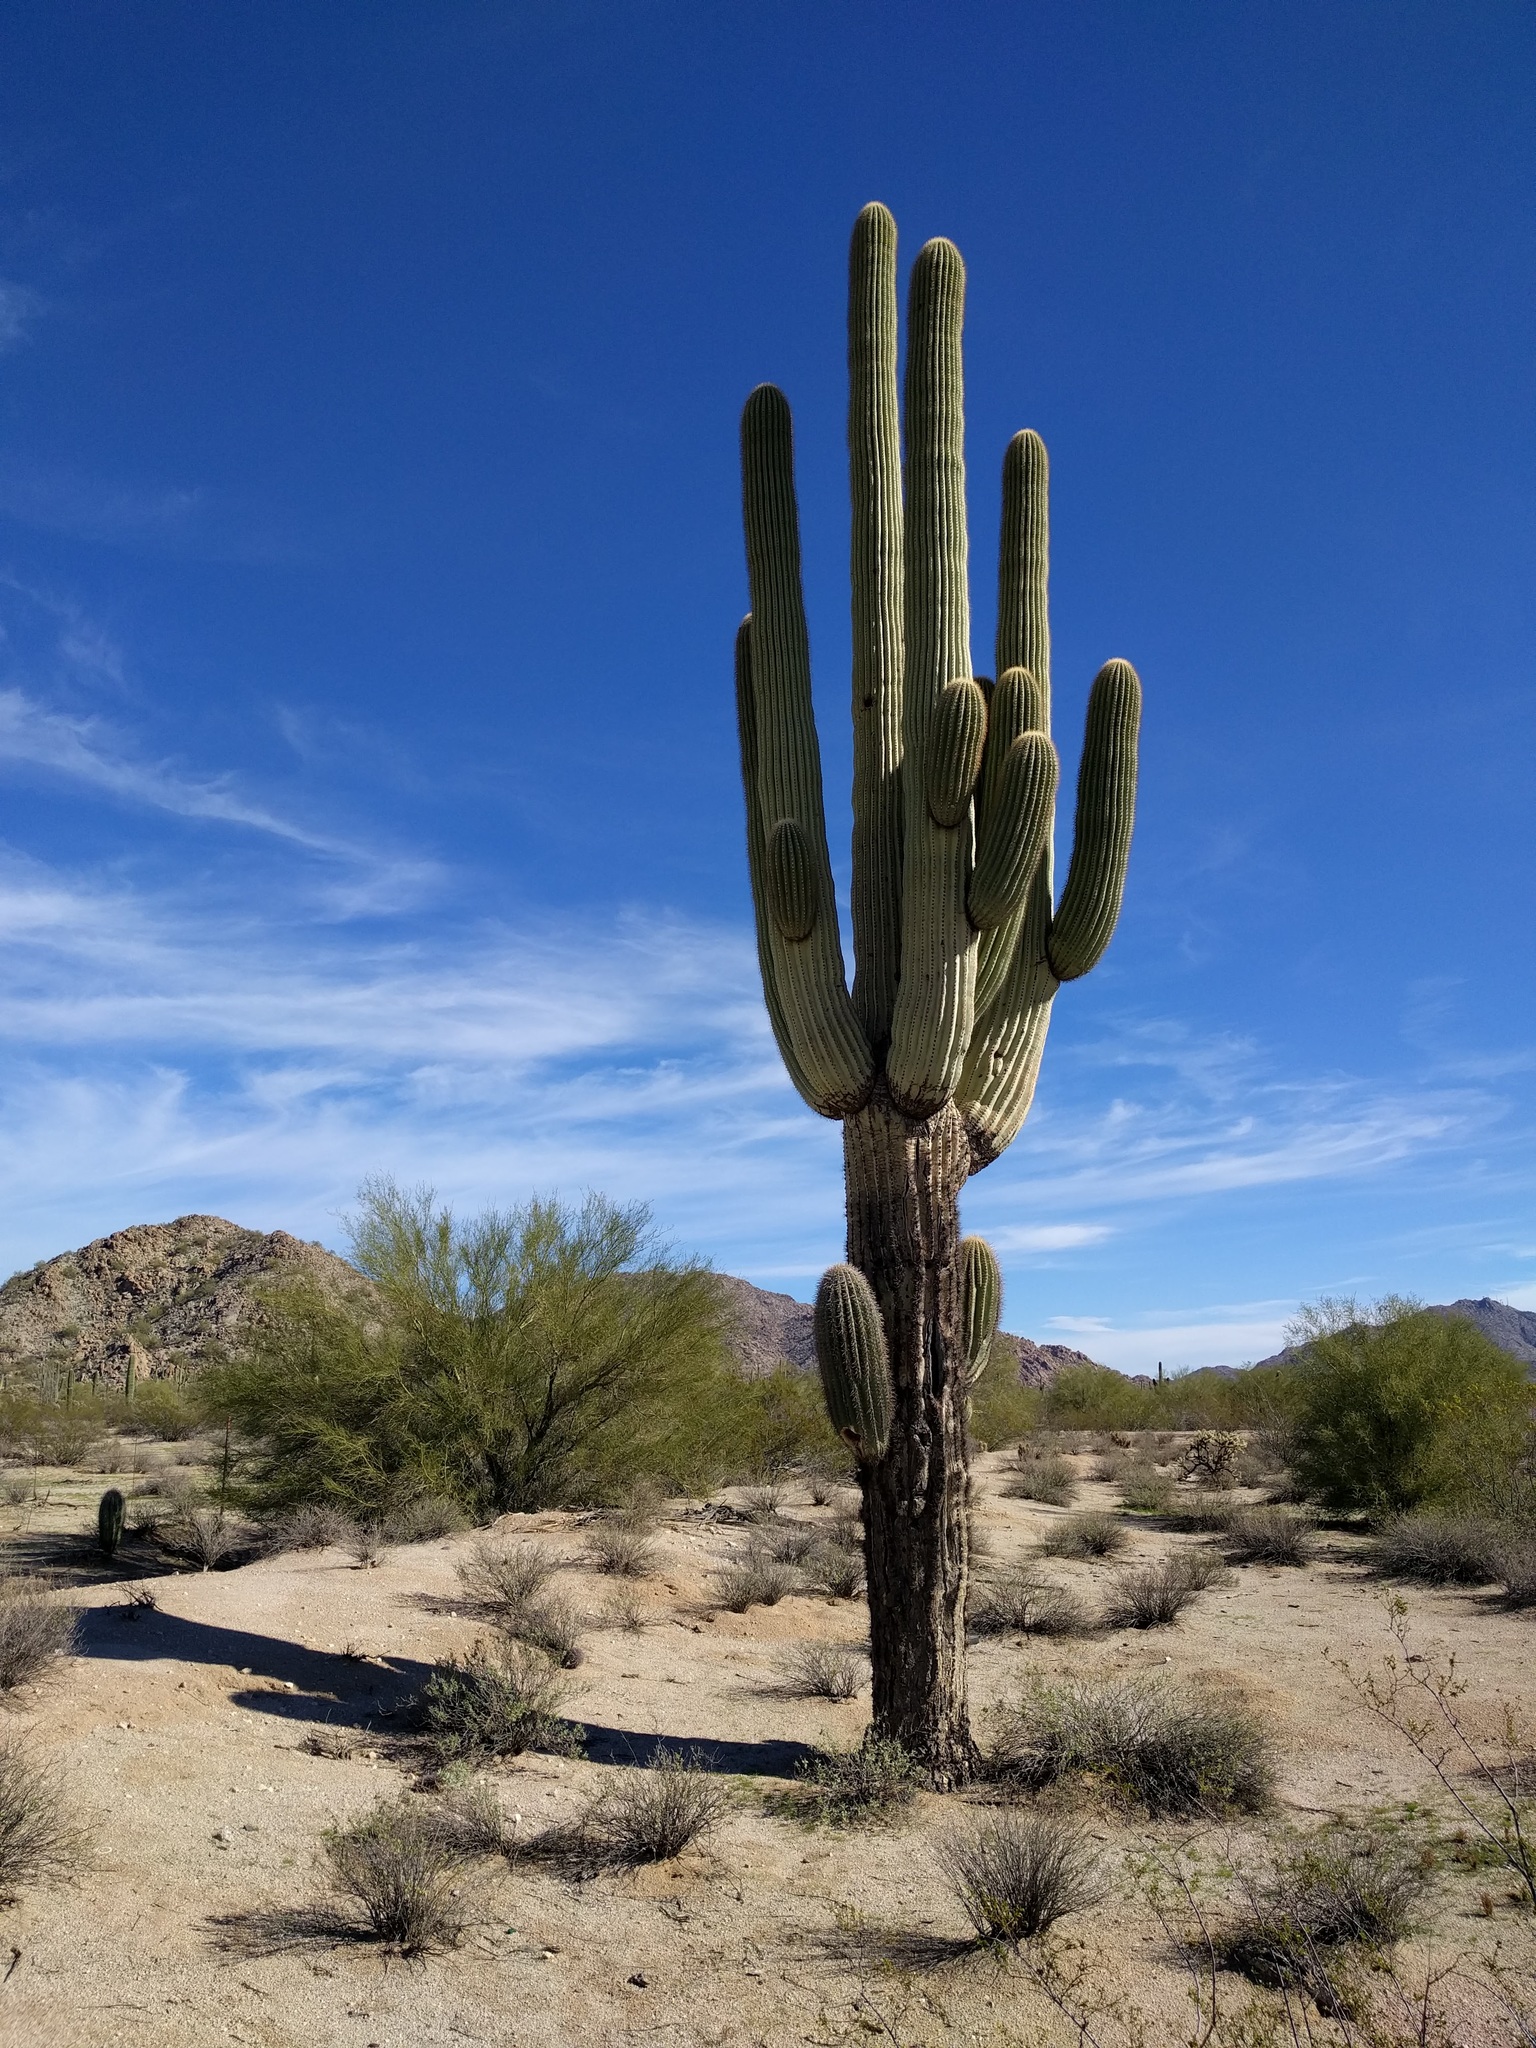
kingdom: Plantae
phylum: Tracheophyta
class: Magnoliopsida
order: Caryophyllales
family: Cactaceae
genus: Carnegiea
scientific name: Carnegiea gigantea
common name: Saguaro
